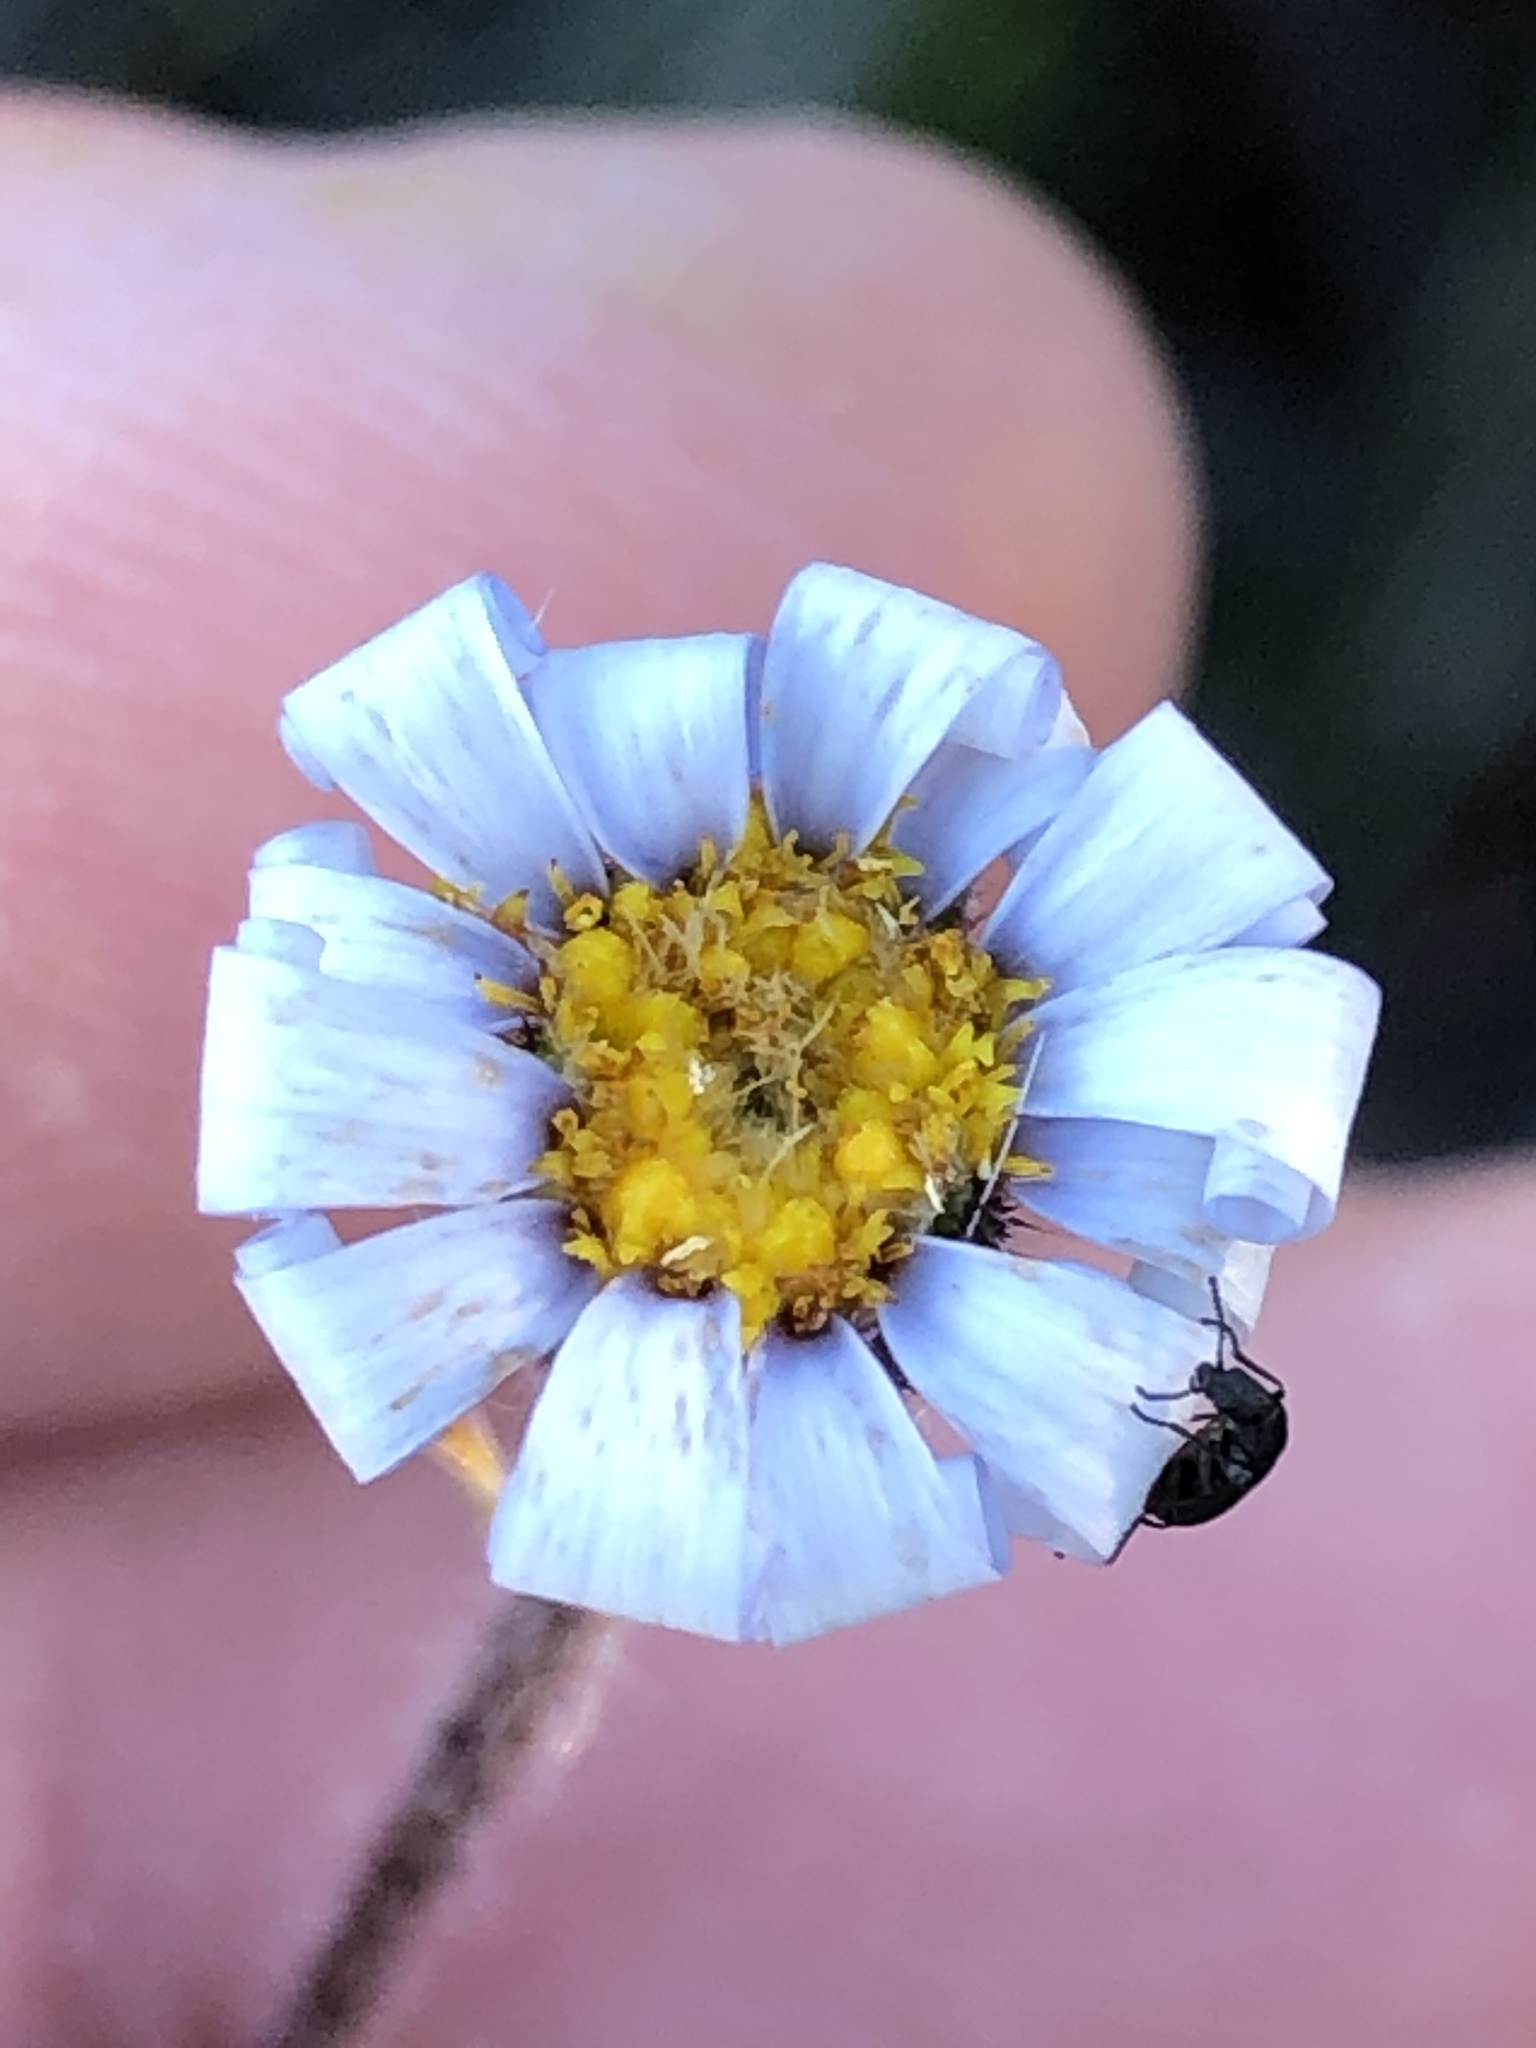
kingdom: Plantae
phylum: Tracheophyta
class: Magnoliopsida
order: Asterales
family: Asteraceae
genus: Zyrphelis
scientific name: Zyrphelis microcephala
